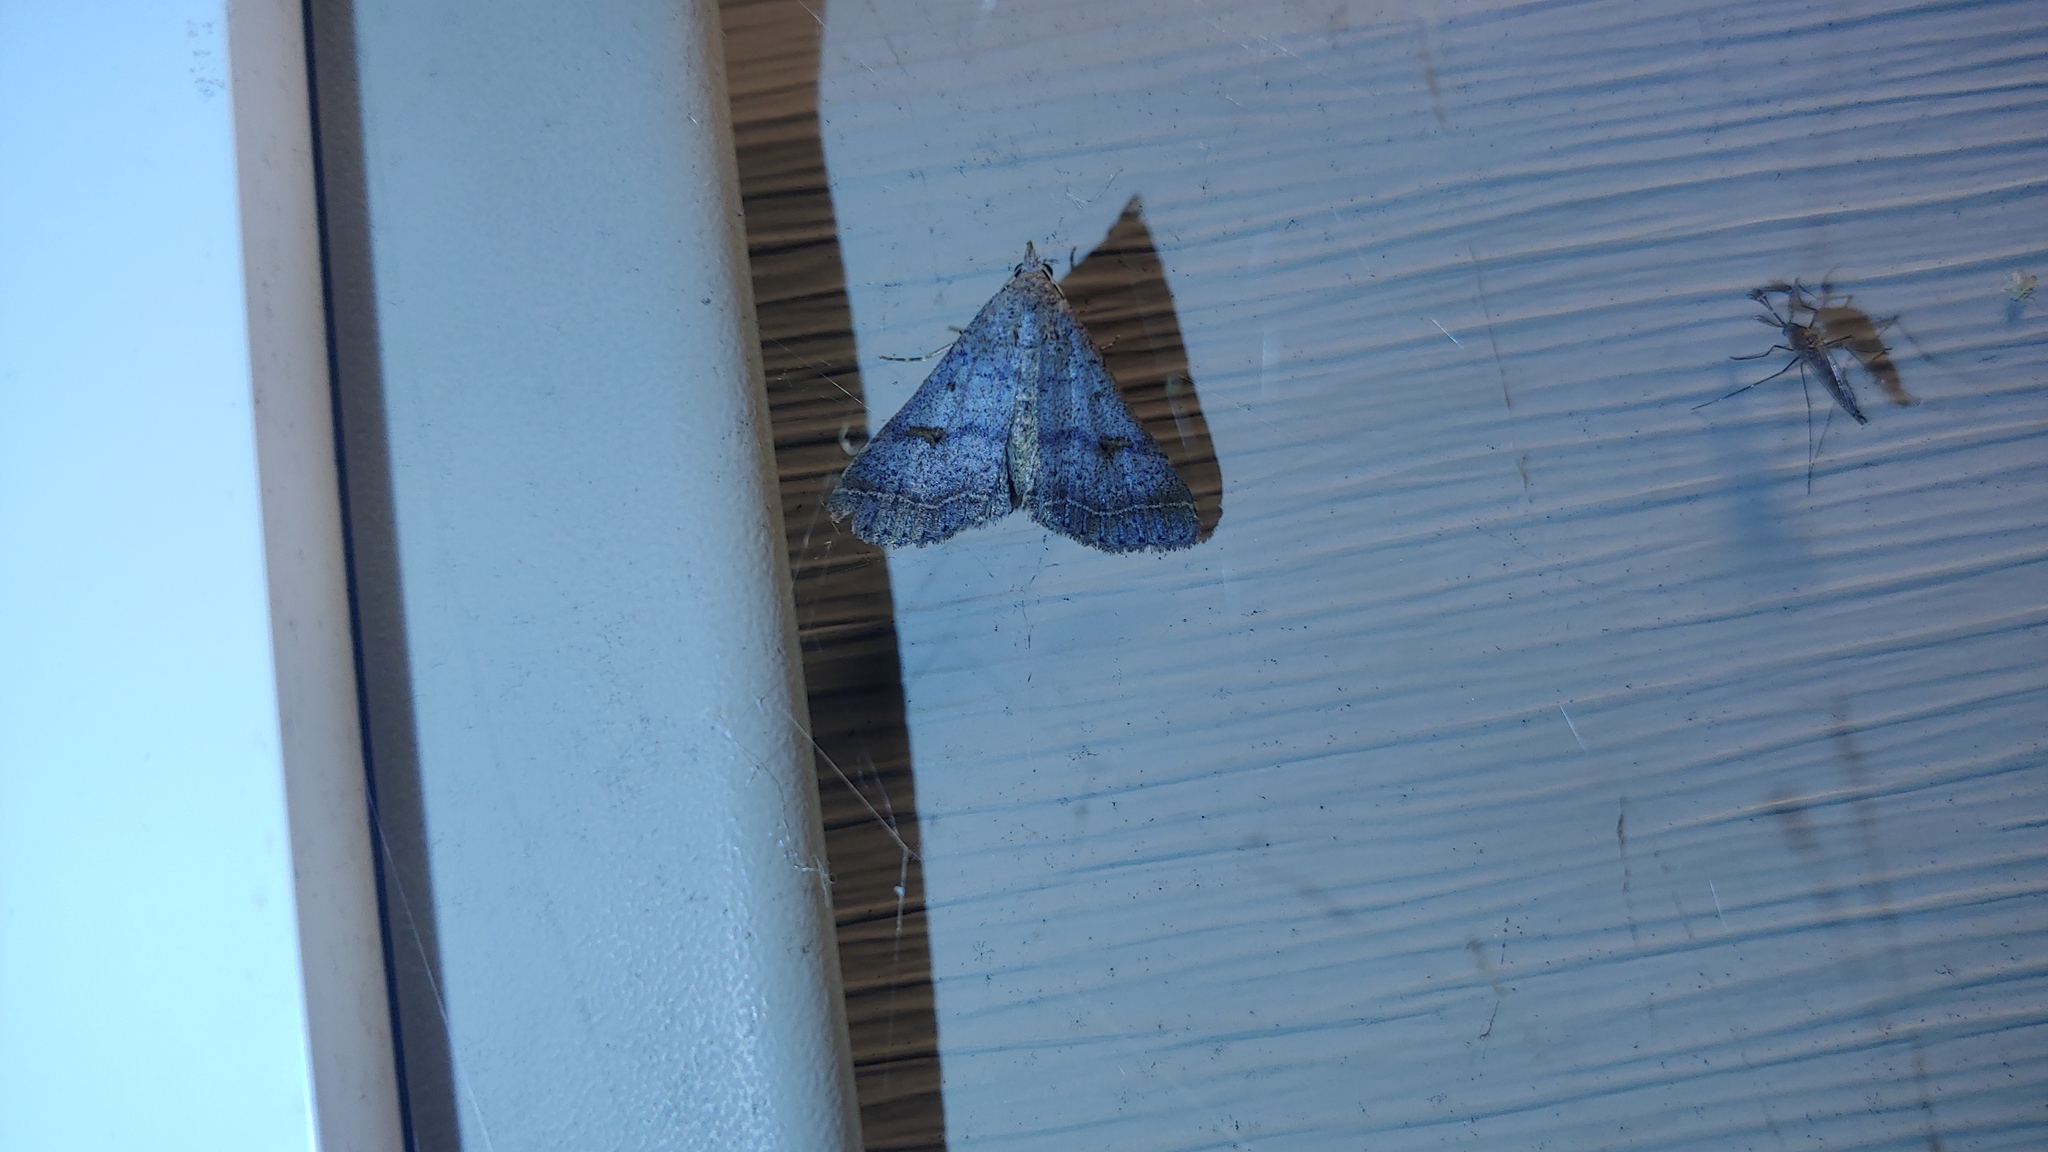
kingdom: Animalia
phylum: Arthropoda
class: Insecta
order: Lepidoptera
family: Erebidae
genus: Bleptina
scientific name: Bleptina caradrinalis
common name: Bent-winged owlet
